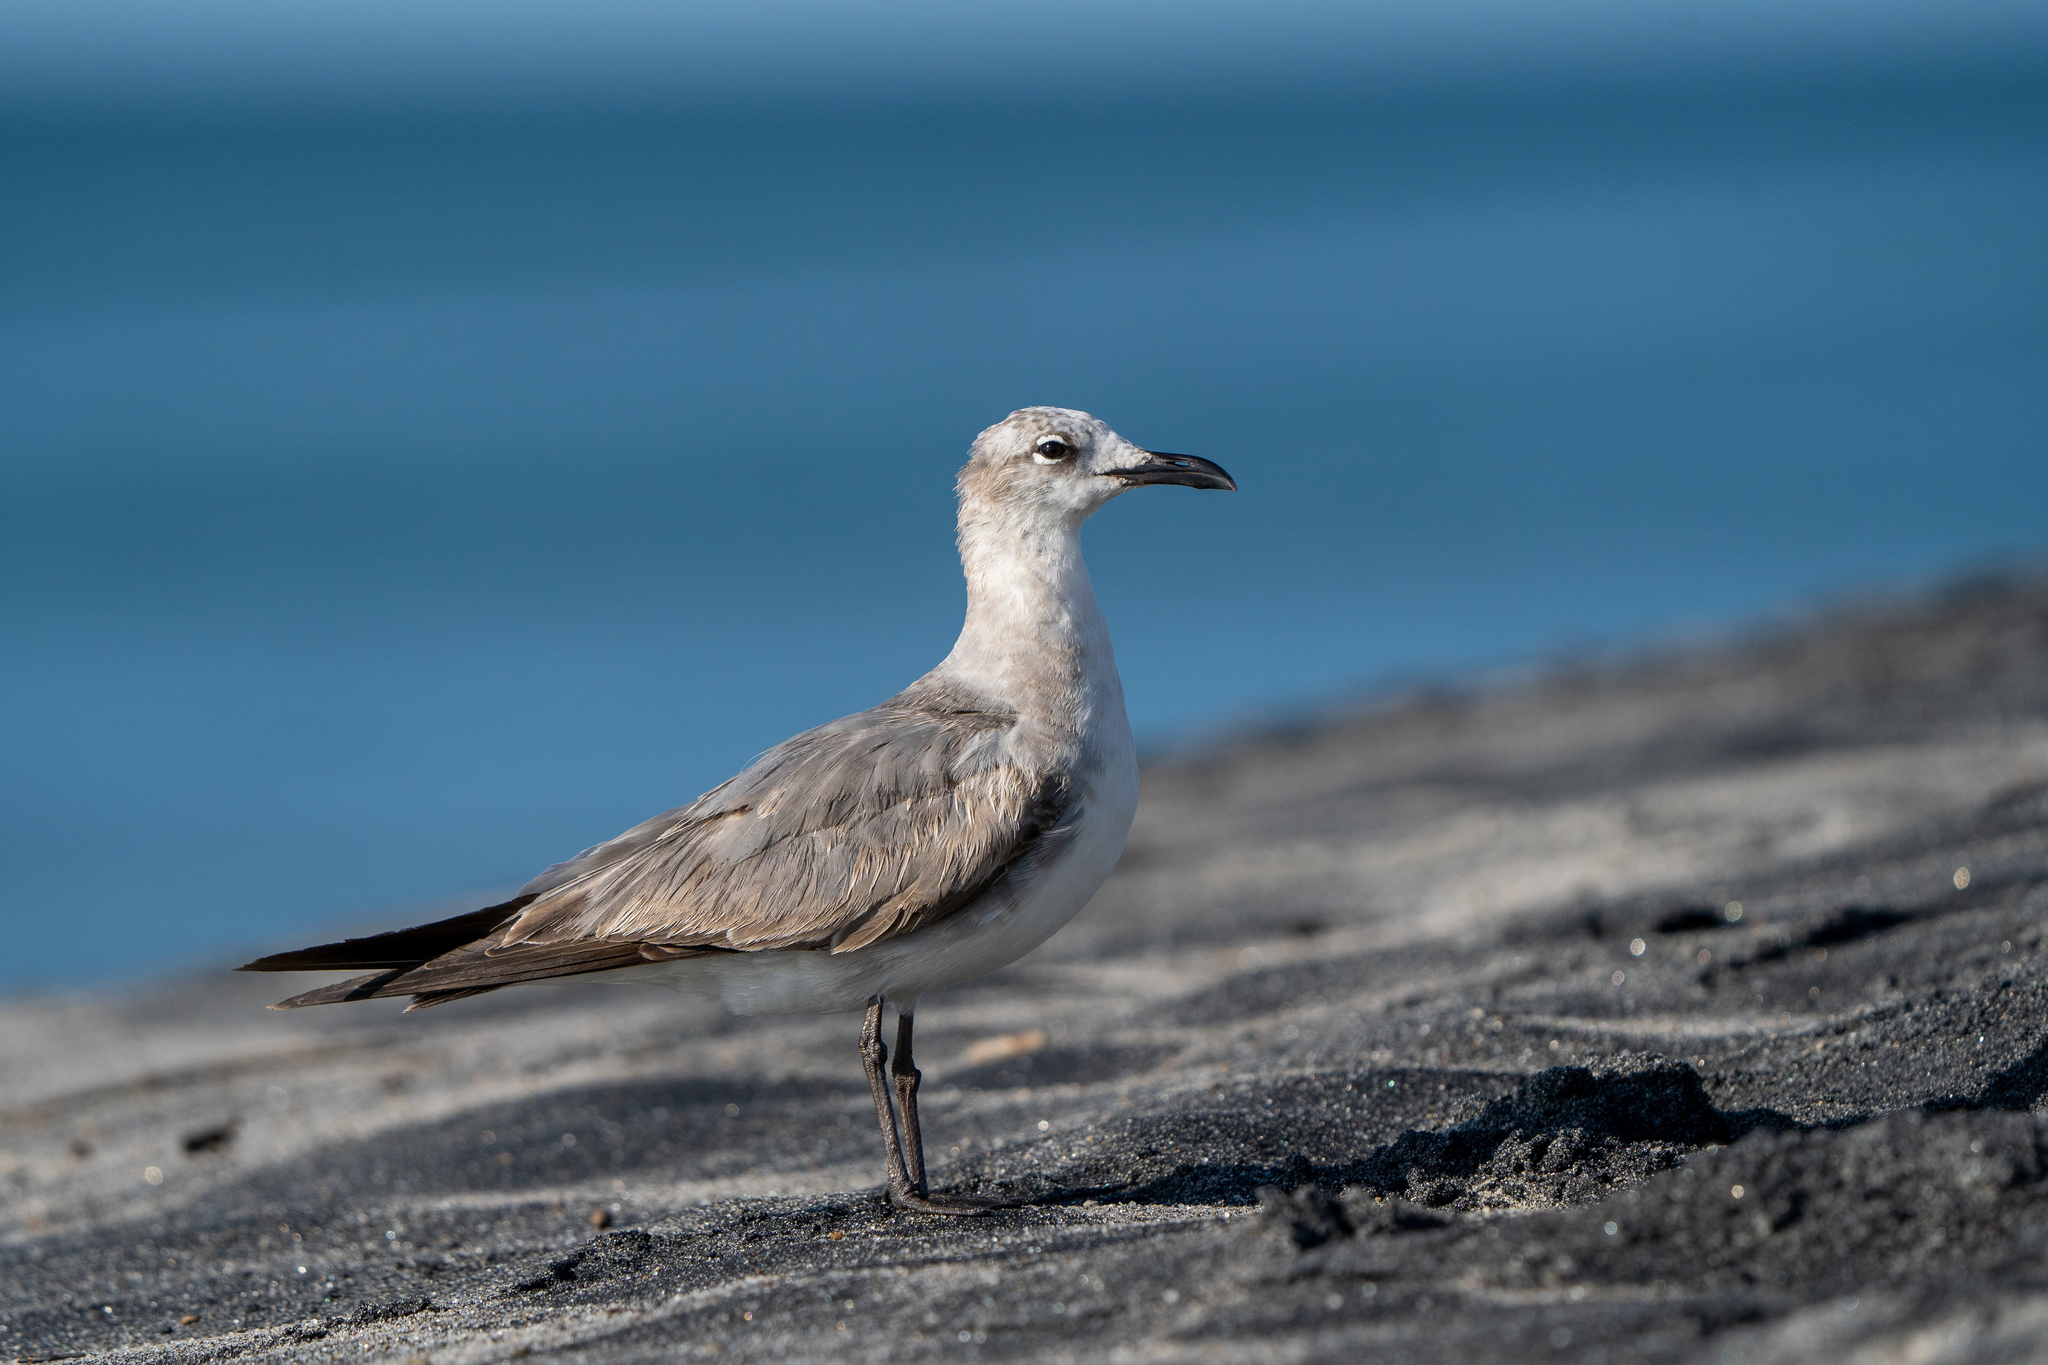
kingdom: Animalia
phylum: Chordata
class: Aves
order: Charadriiformes
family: Laridae
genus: Leucophaeus
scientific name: Leucophaeus atricilla
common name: Laughing gull
